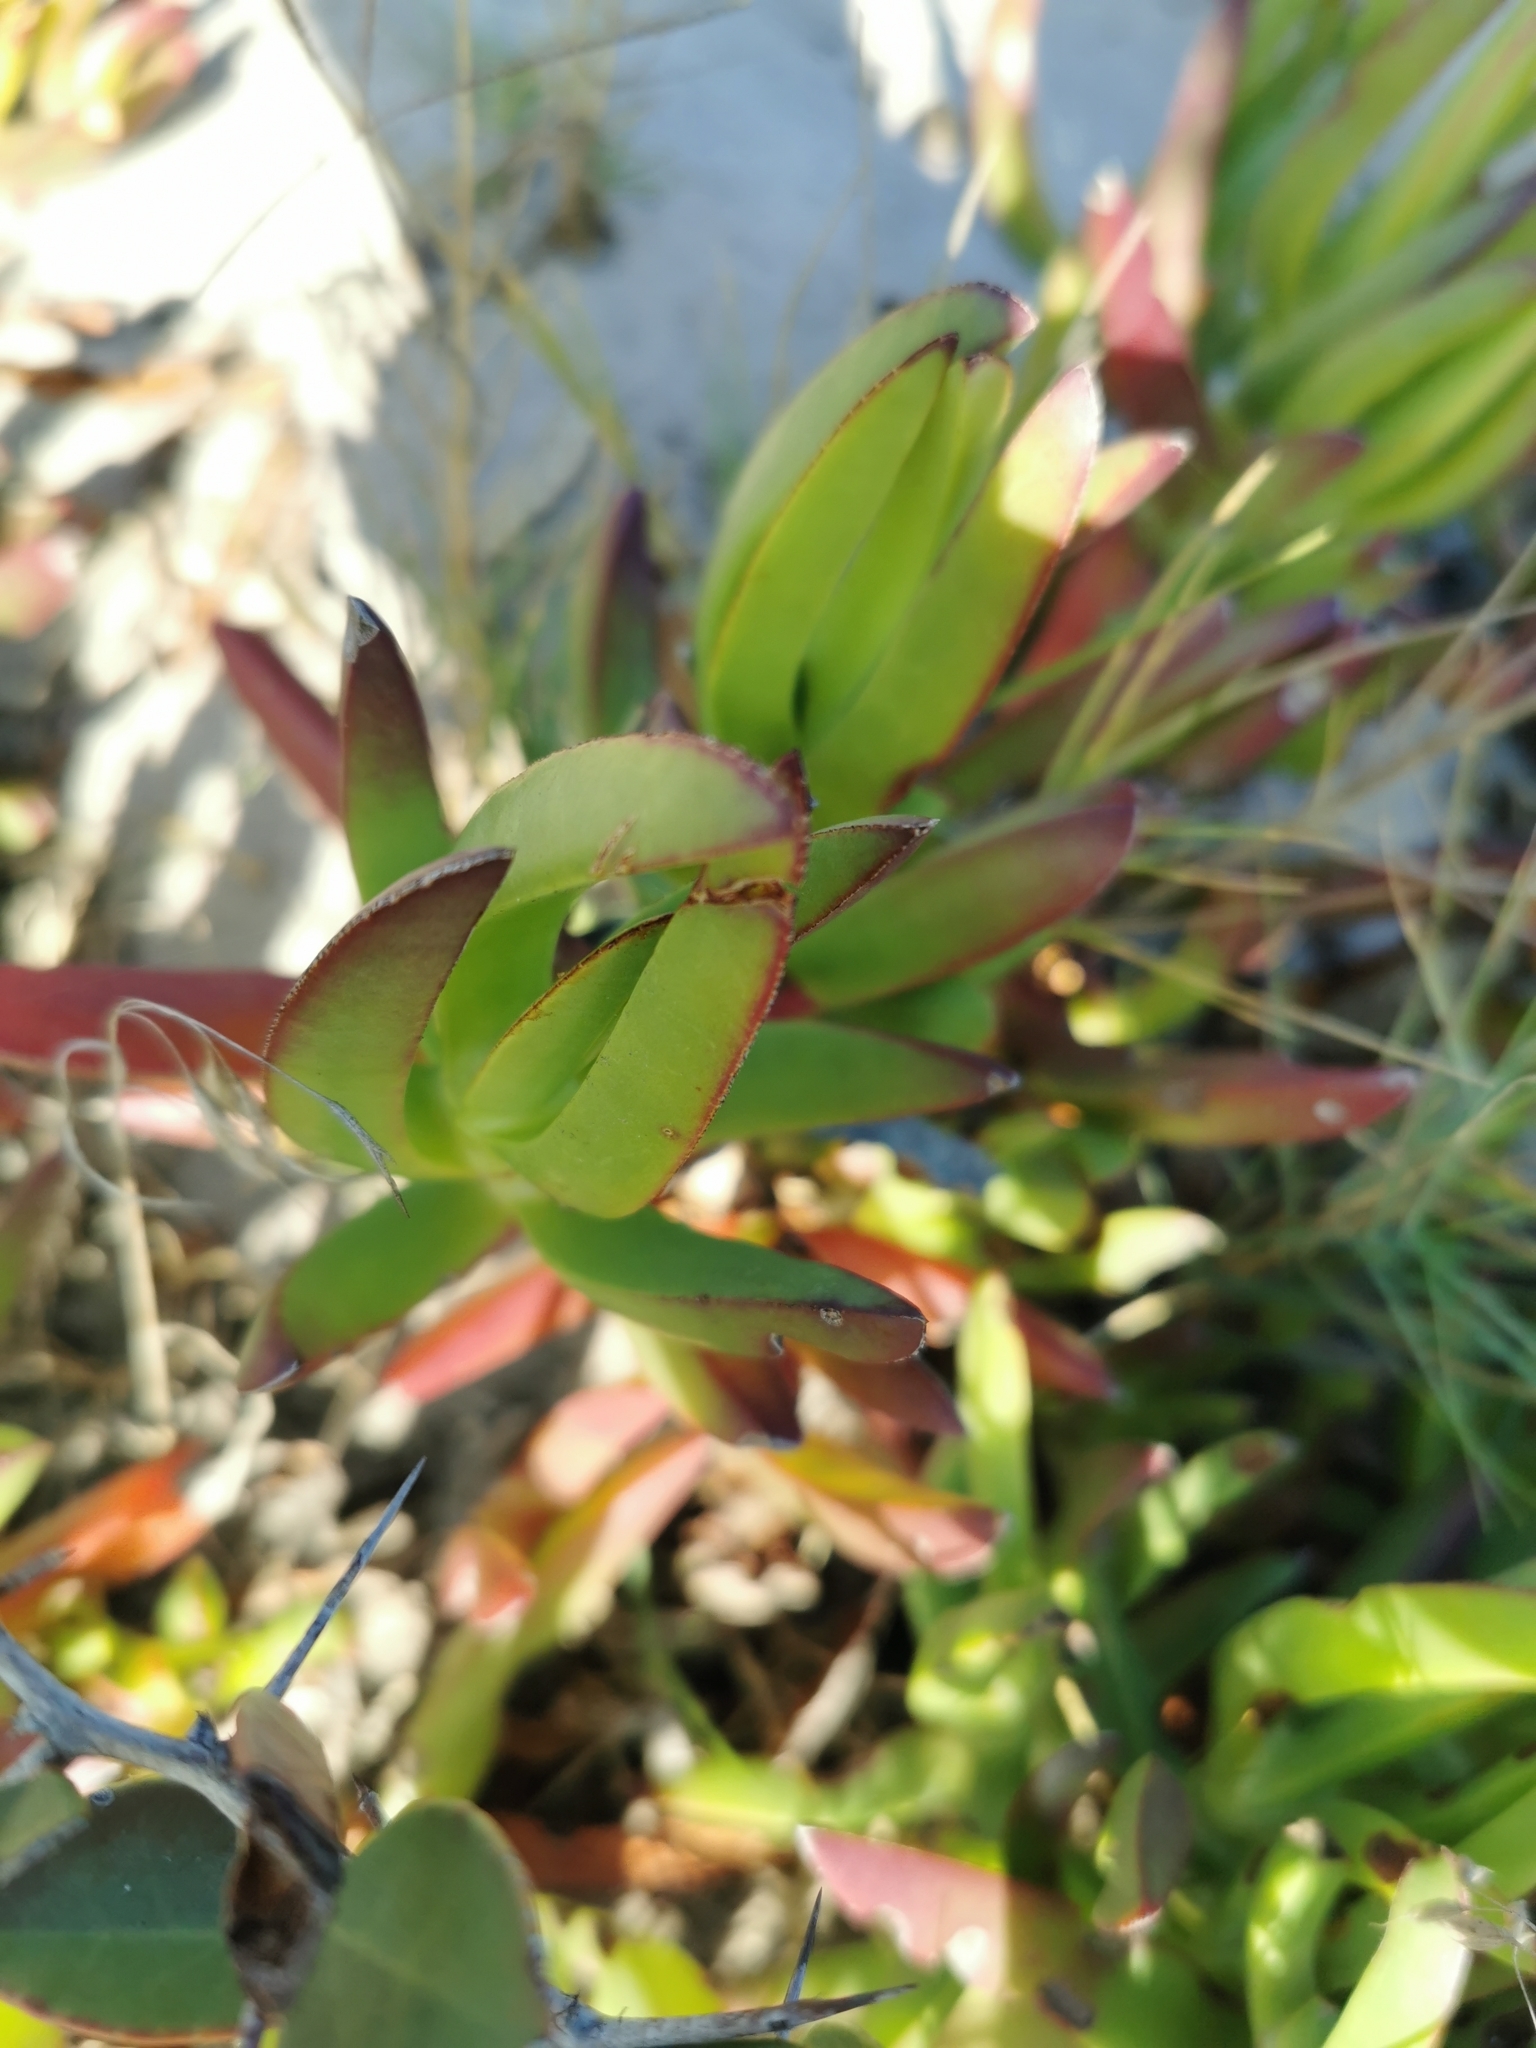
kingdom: Plantae
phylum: Tracheophyta
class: Magnoliopsida
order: Caryophyllales
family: Aizoaceae
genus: Carpobrotus
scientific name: Carpobrotus edulis
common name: Hottentot-fig
